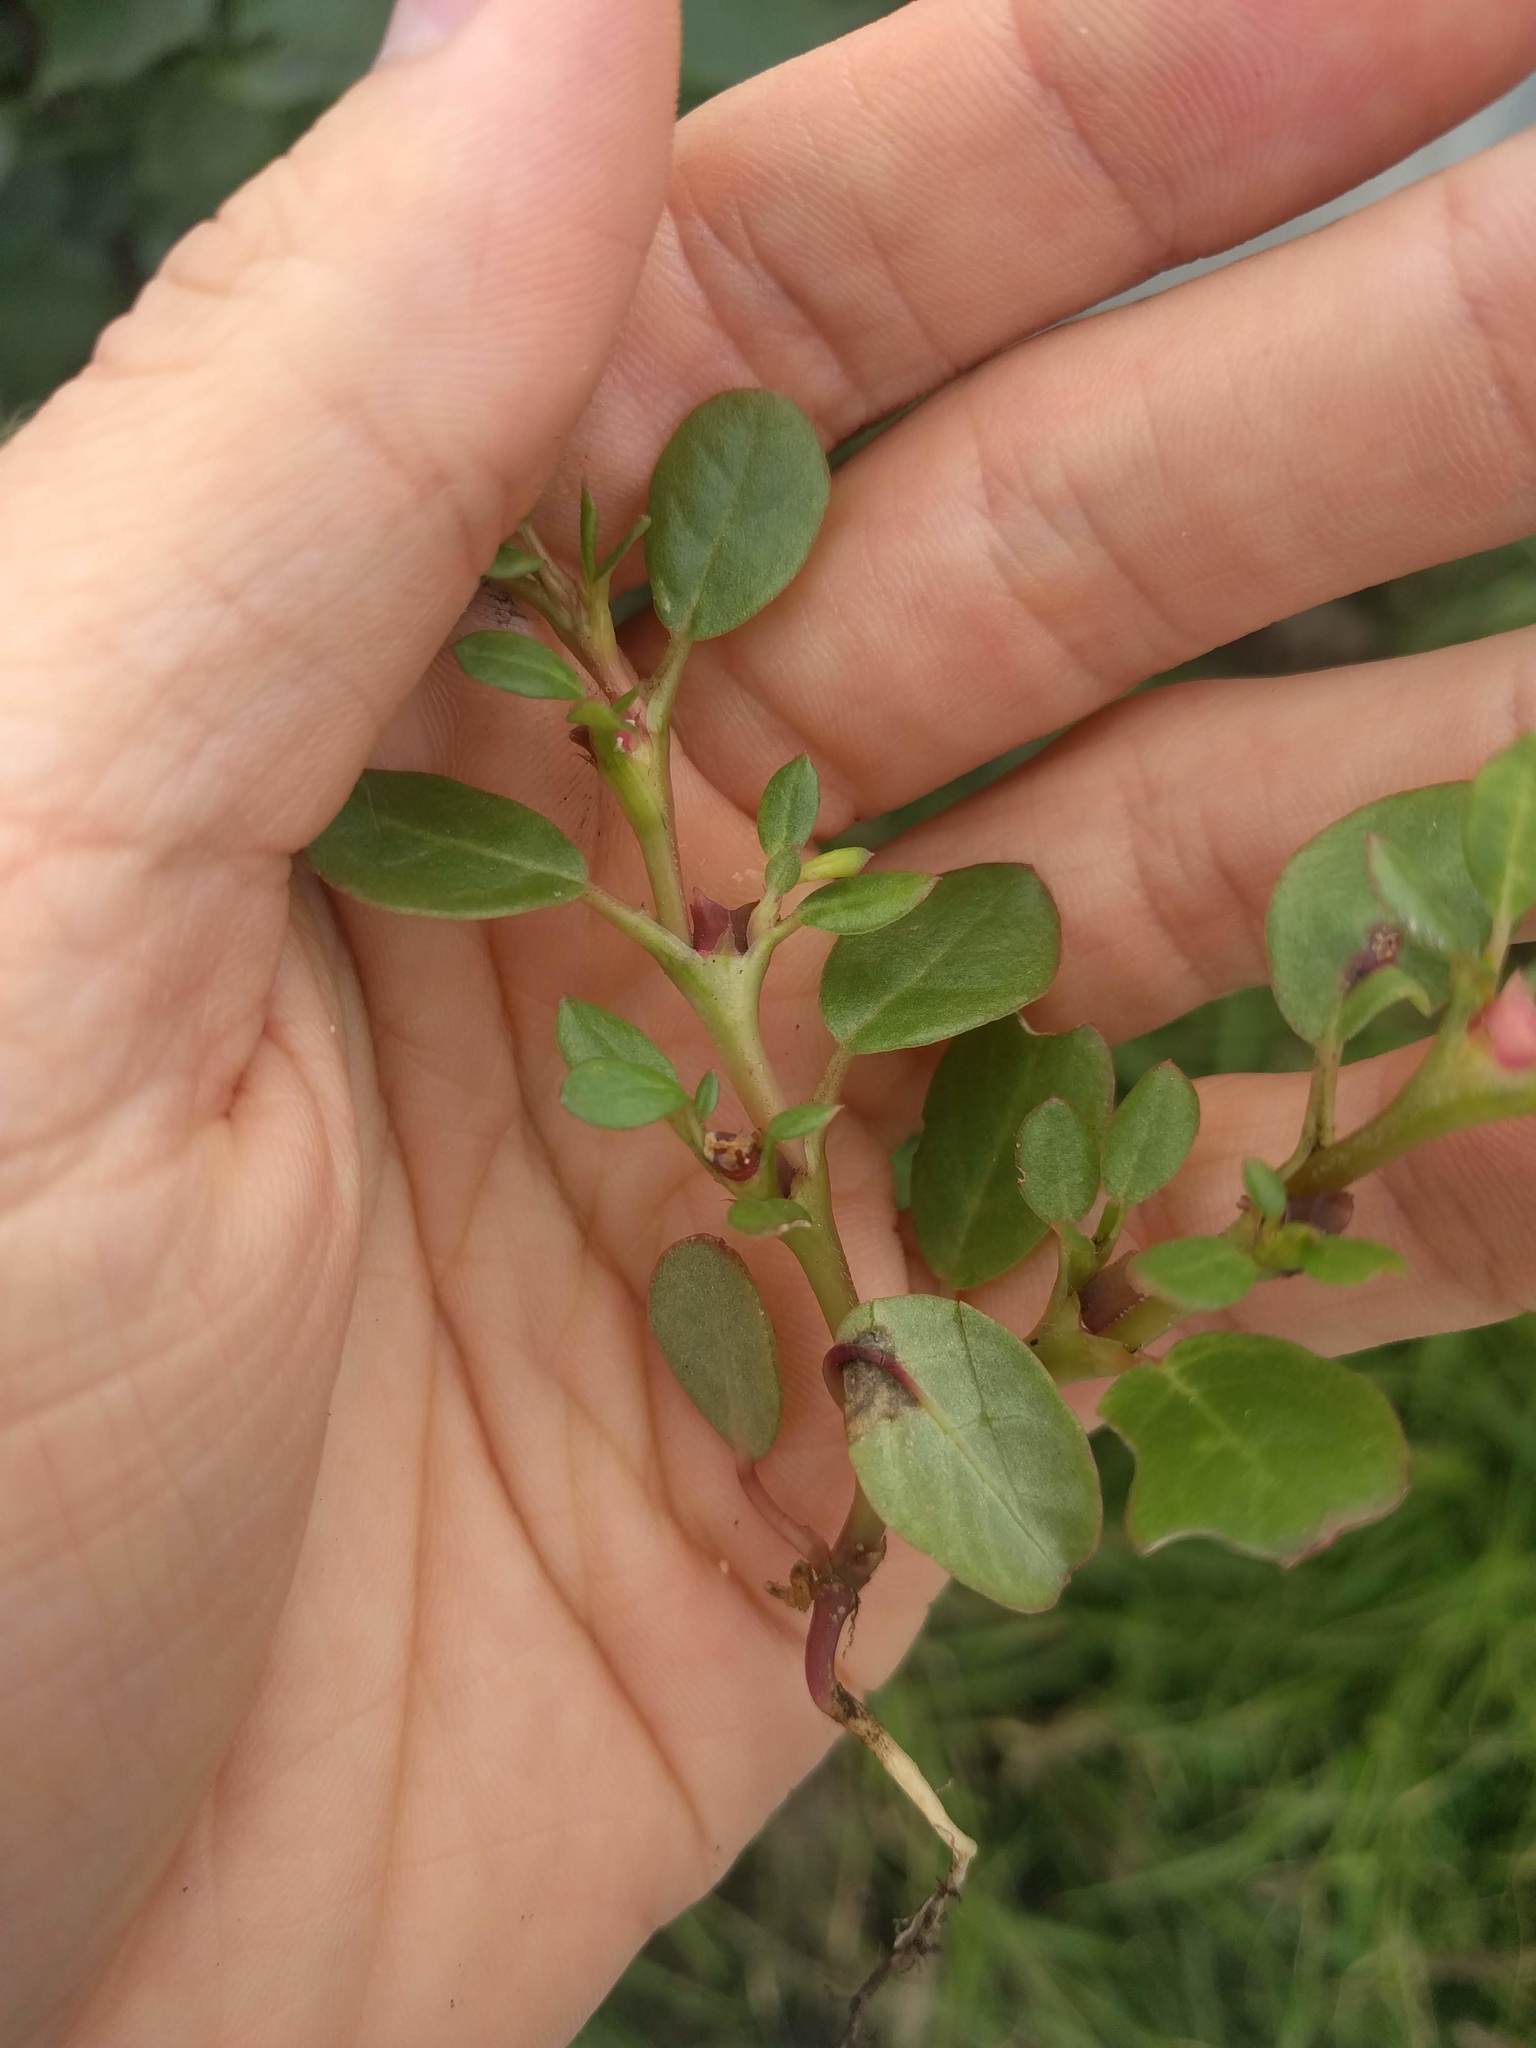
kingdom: Plantae
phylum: Tracheophyta
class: Magnoliopsida
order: Caryophyllales
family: Aizoaceae
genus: Trianthema
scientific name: Trianthema portulacastrum
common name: Desert horsepurslane
